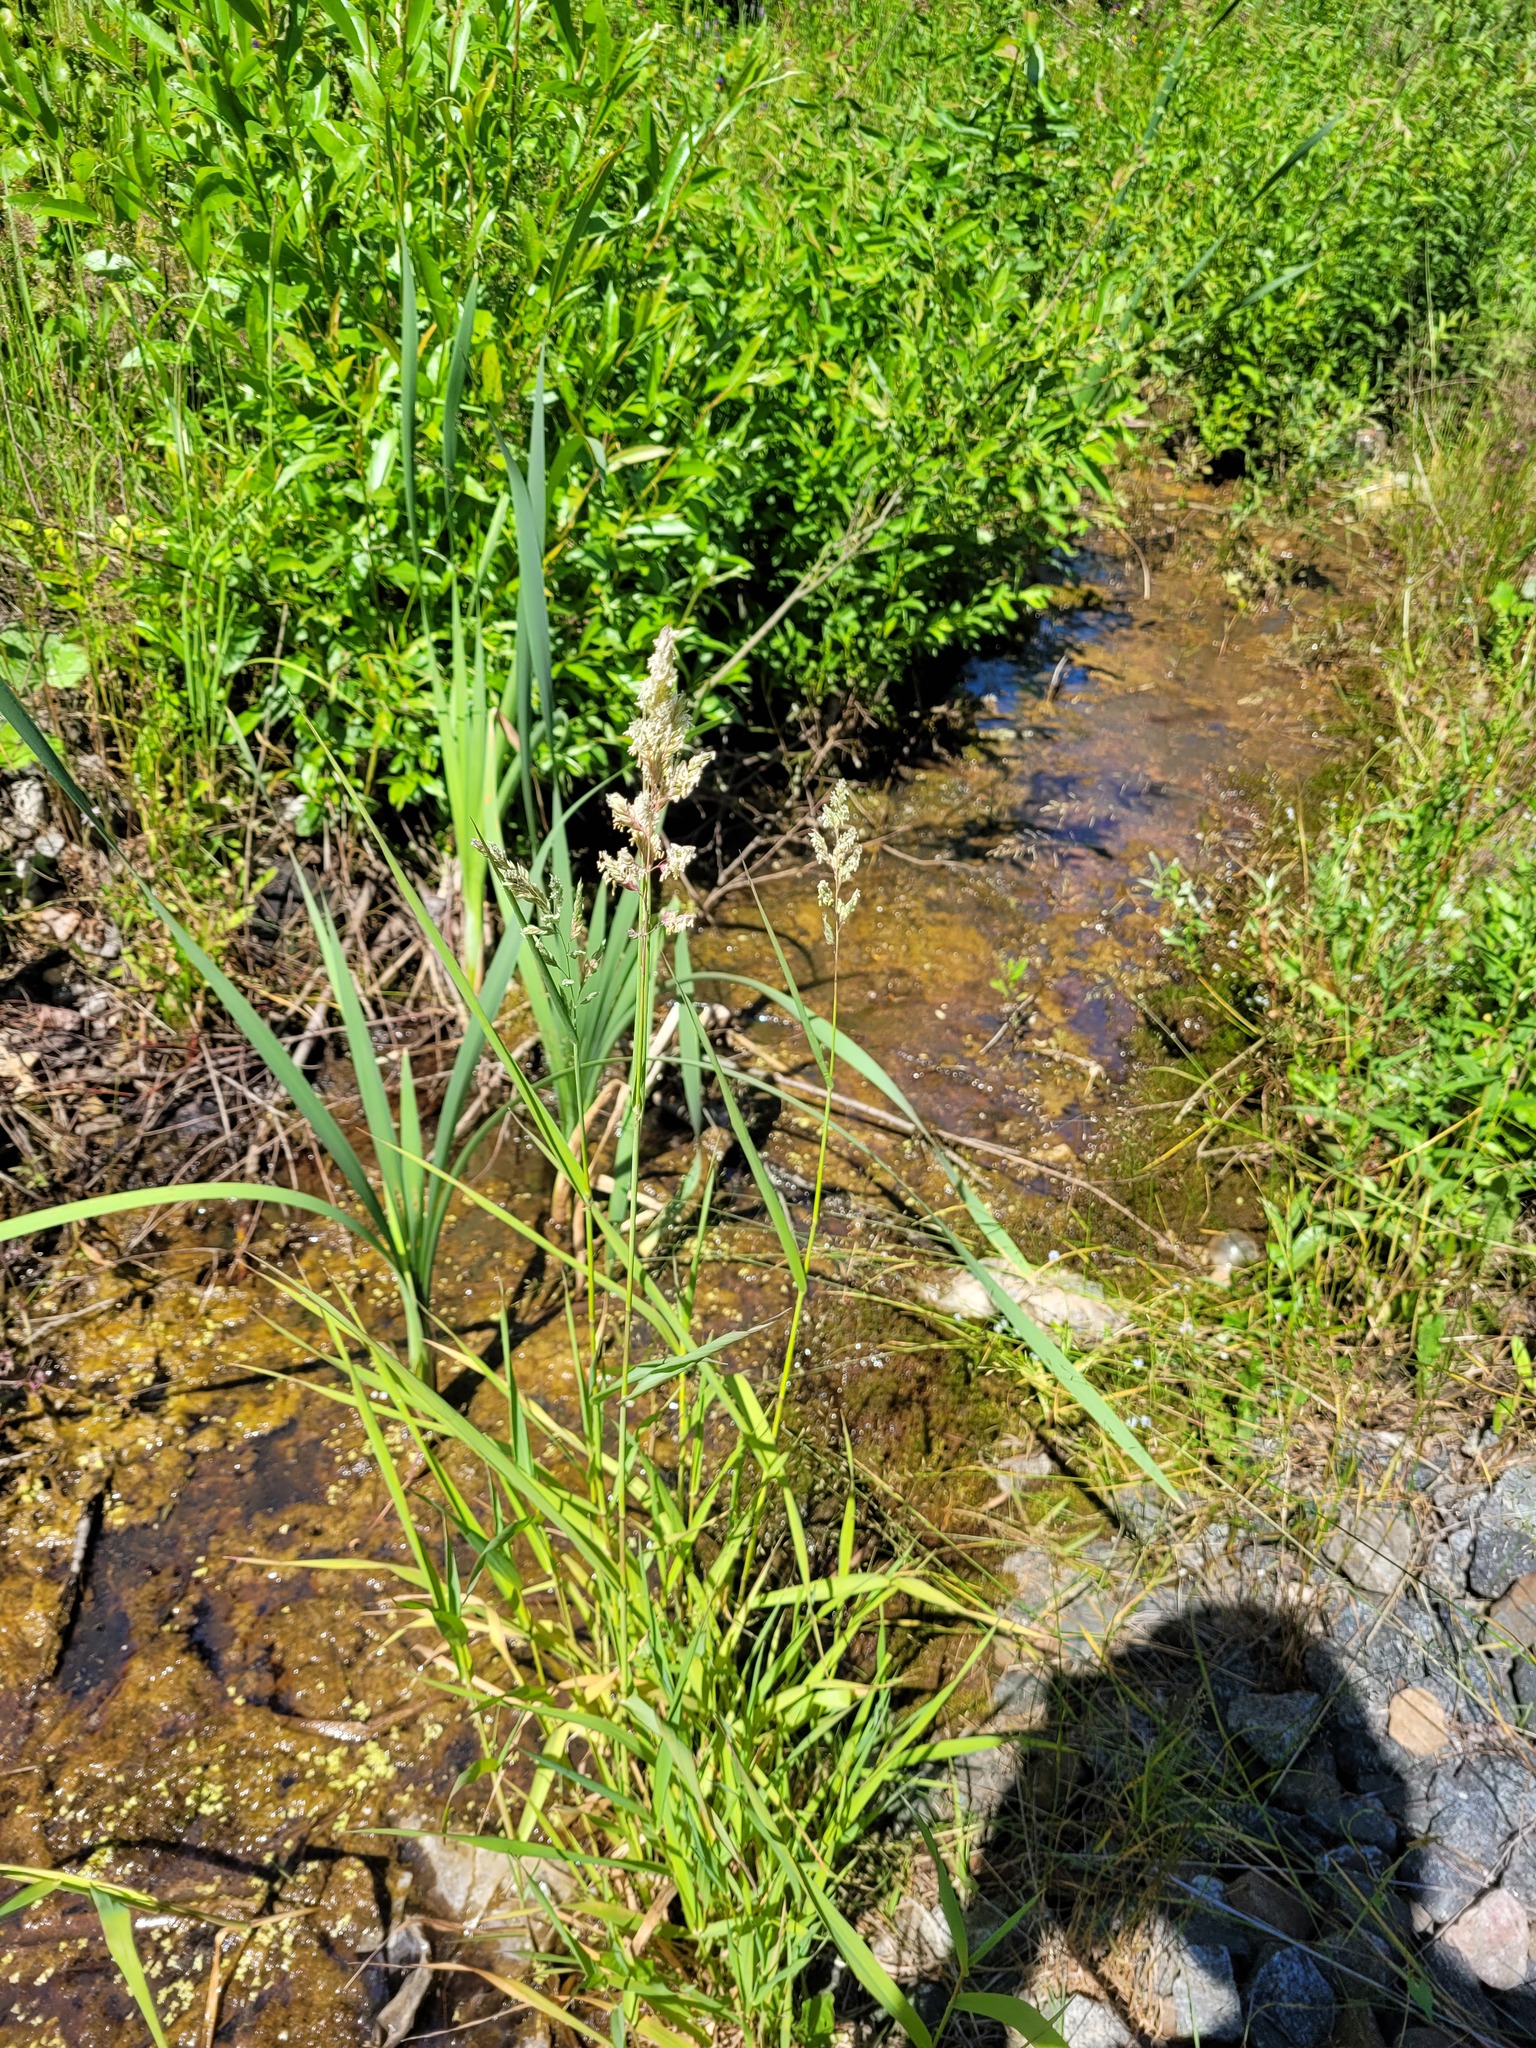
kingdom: Plantae
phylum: Tracheophyta
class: Liliopsida
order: Poales
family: Poaceae
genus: Phalaris
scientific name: Phalaris arundinacea
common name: Reed canary-grass
